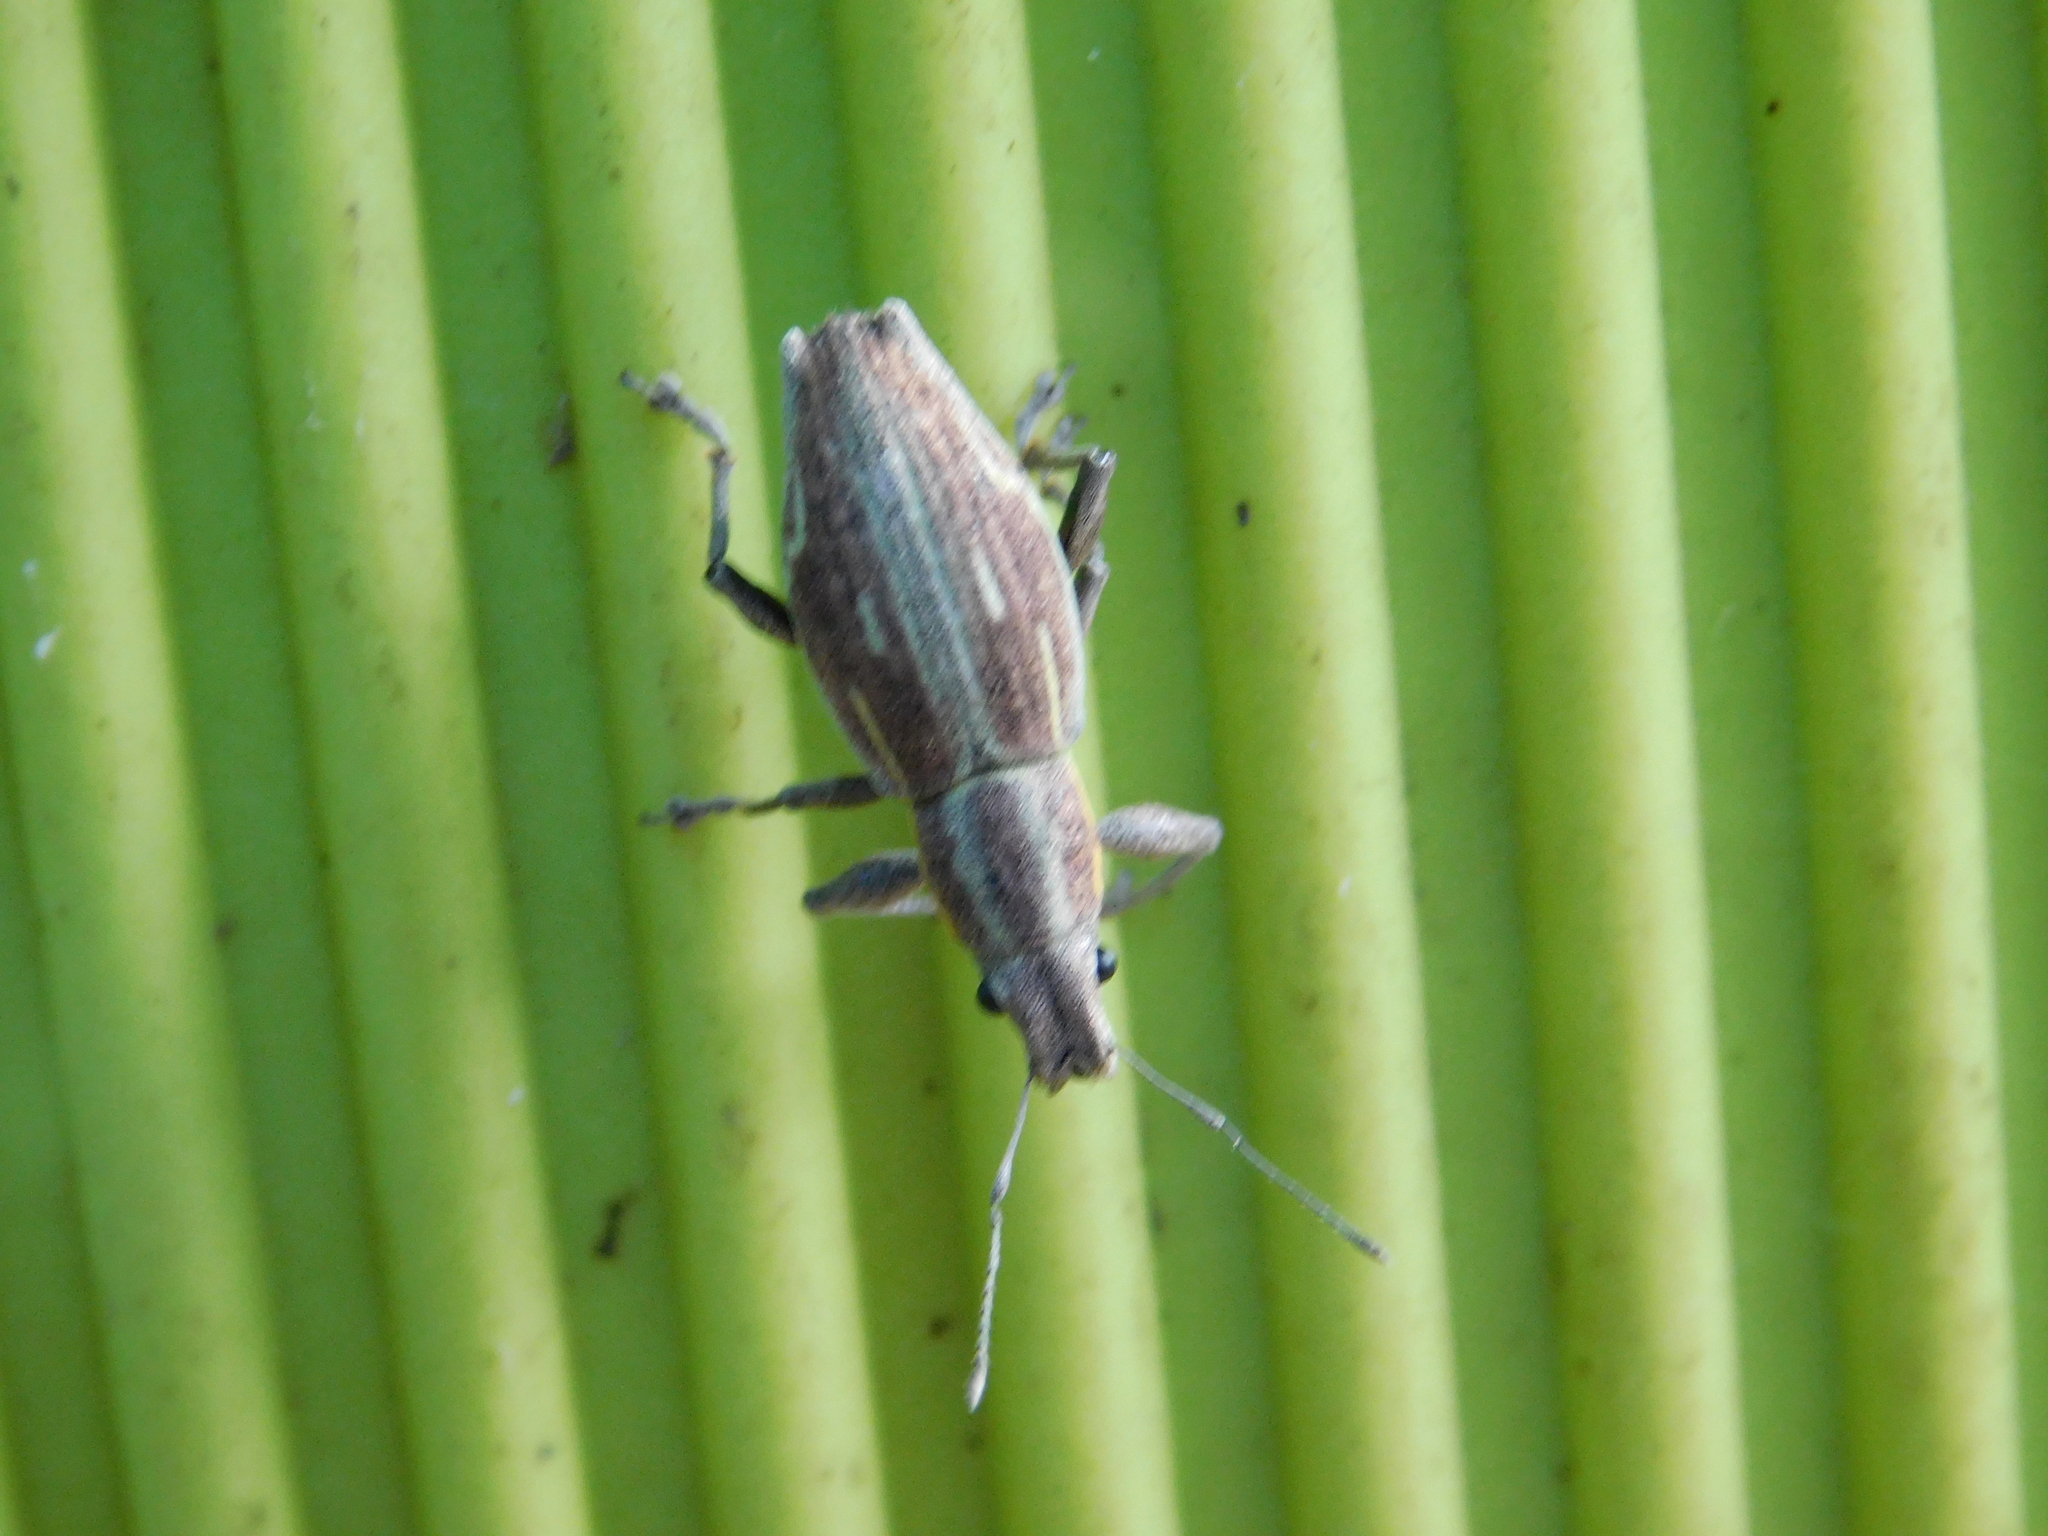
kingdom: Animalia
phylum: Arthropoda
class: Insecta
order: Coleoptera
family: Curculionidae
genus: Naupactus
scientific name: Naupactus xanthographus
